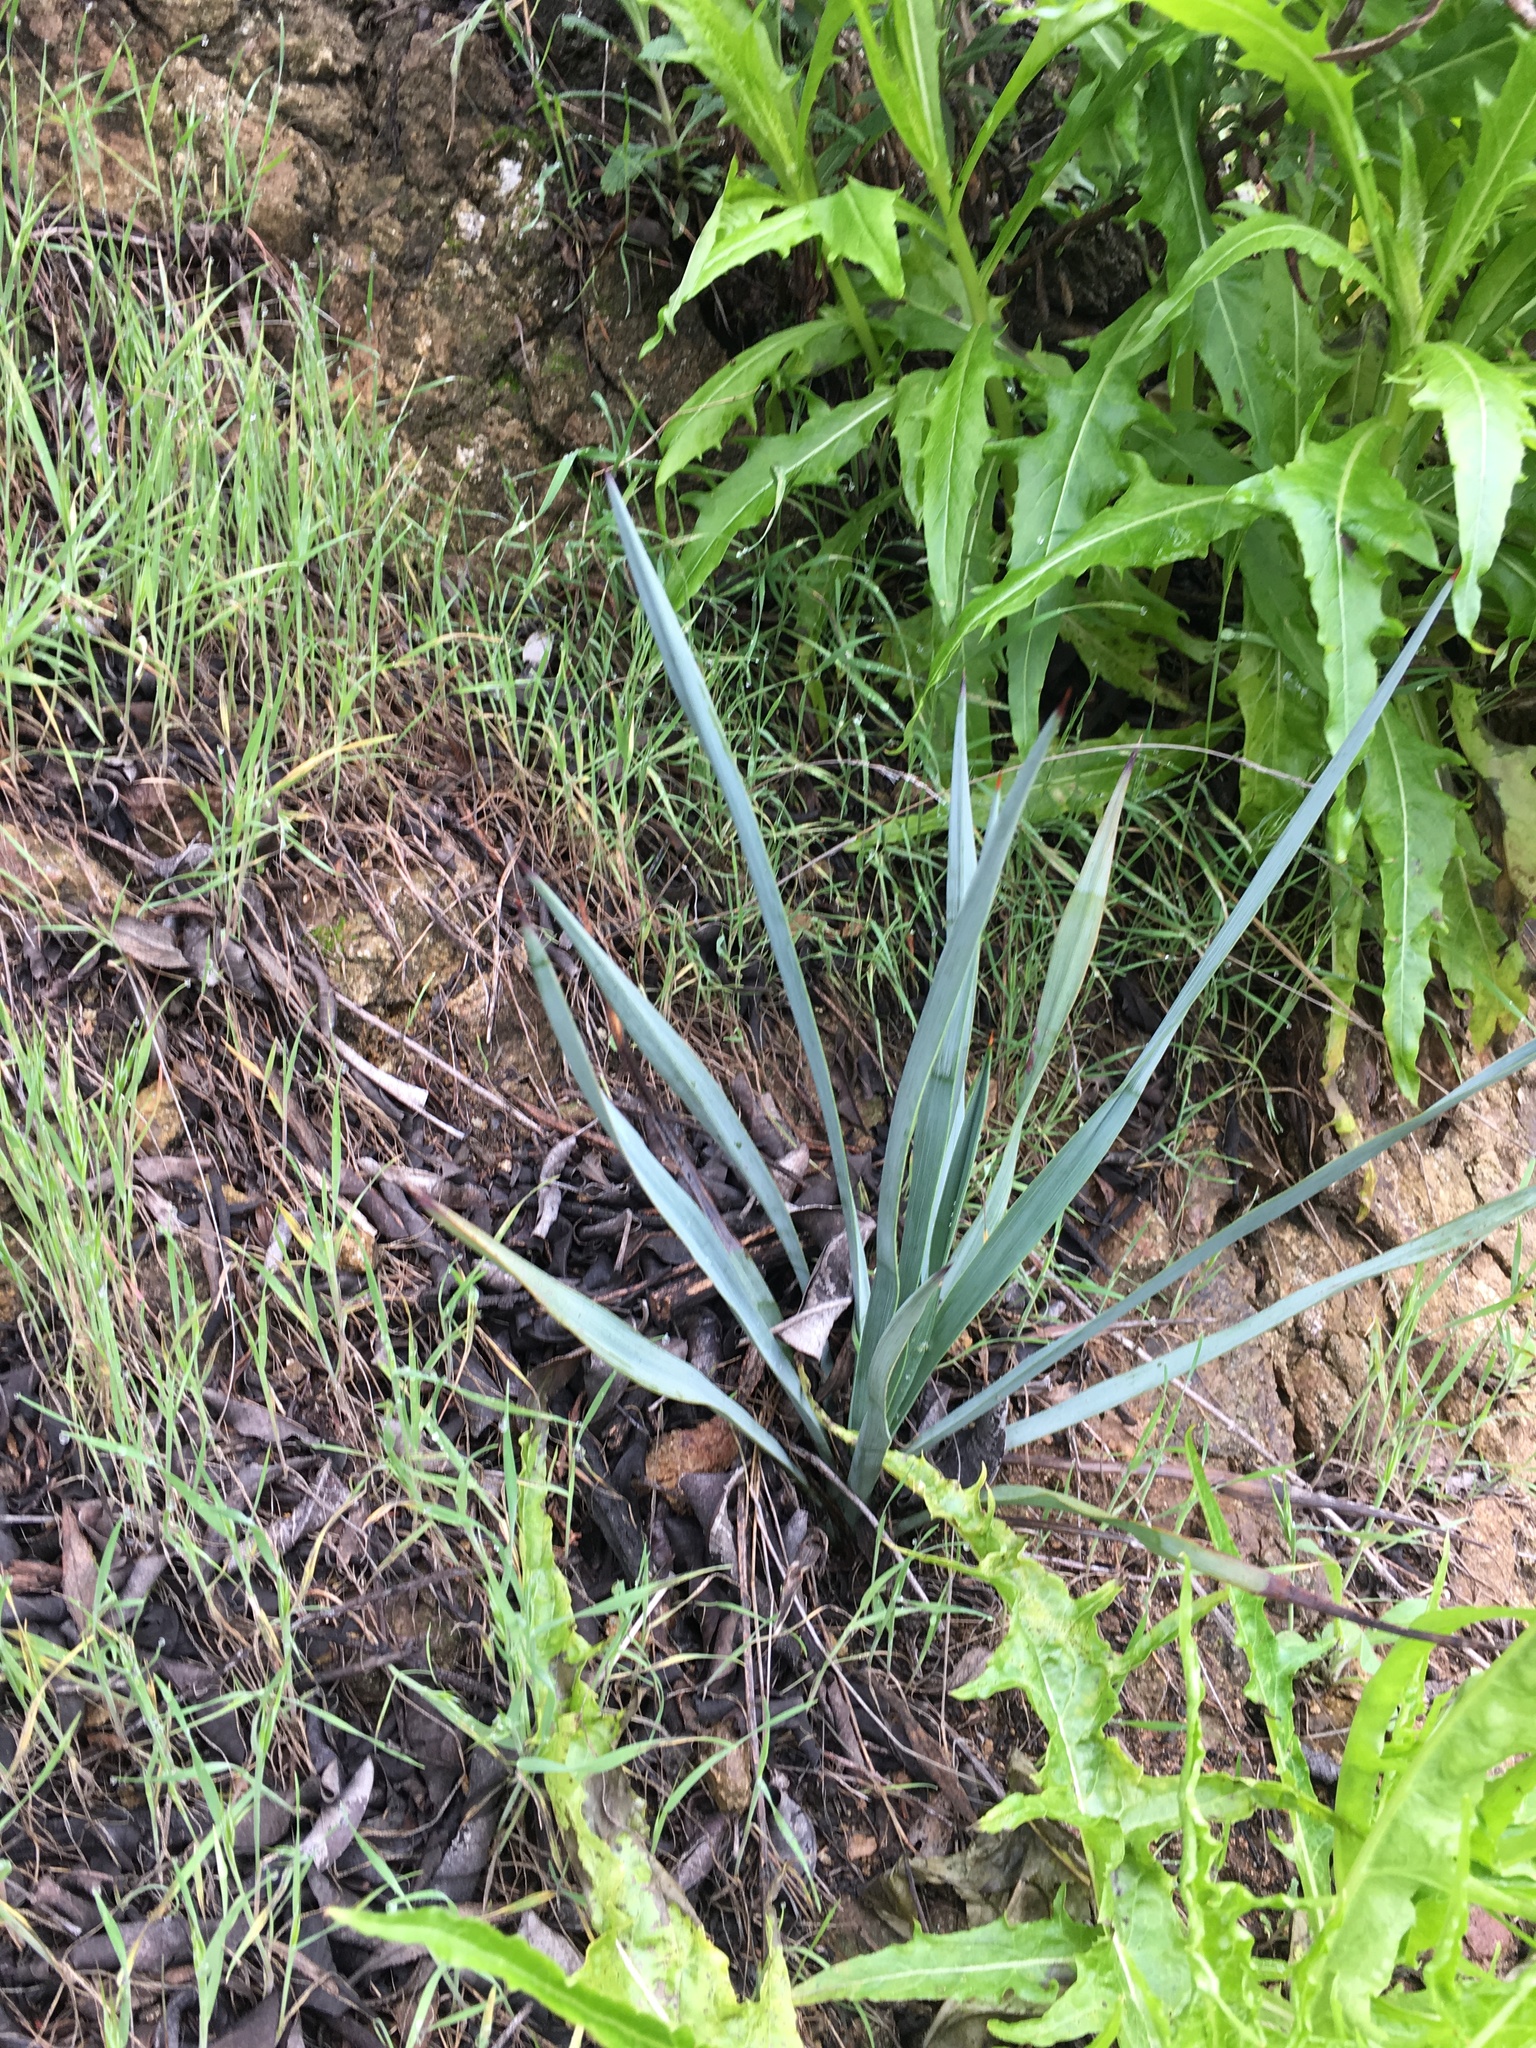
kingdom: Plantae
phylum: Tracheophyta
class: Liliopsida
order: Asparagales
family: Asparagaceae
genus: Hesperoyucca
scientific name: Hesperoyucca whipplei
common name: Our lord's-candle
